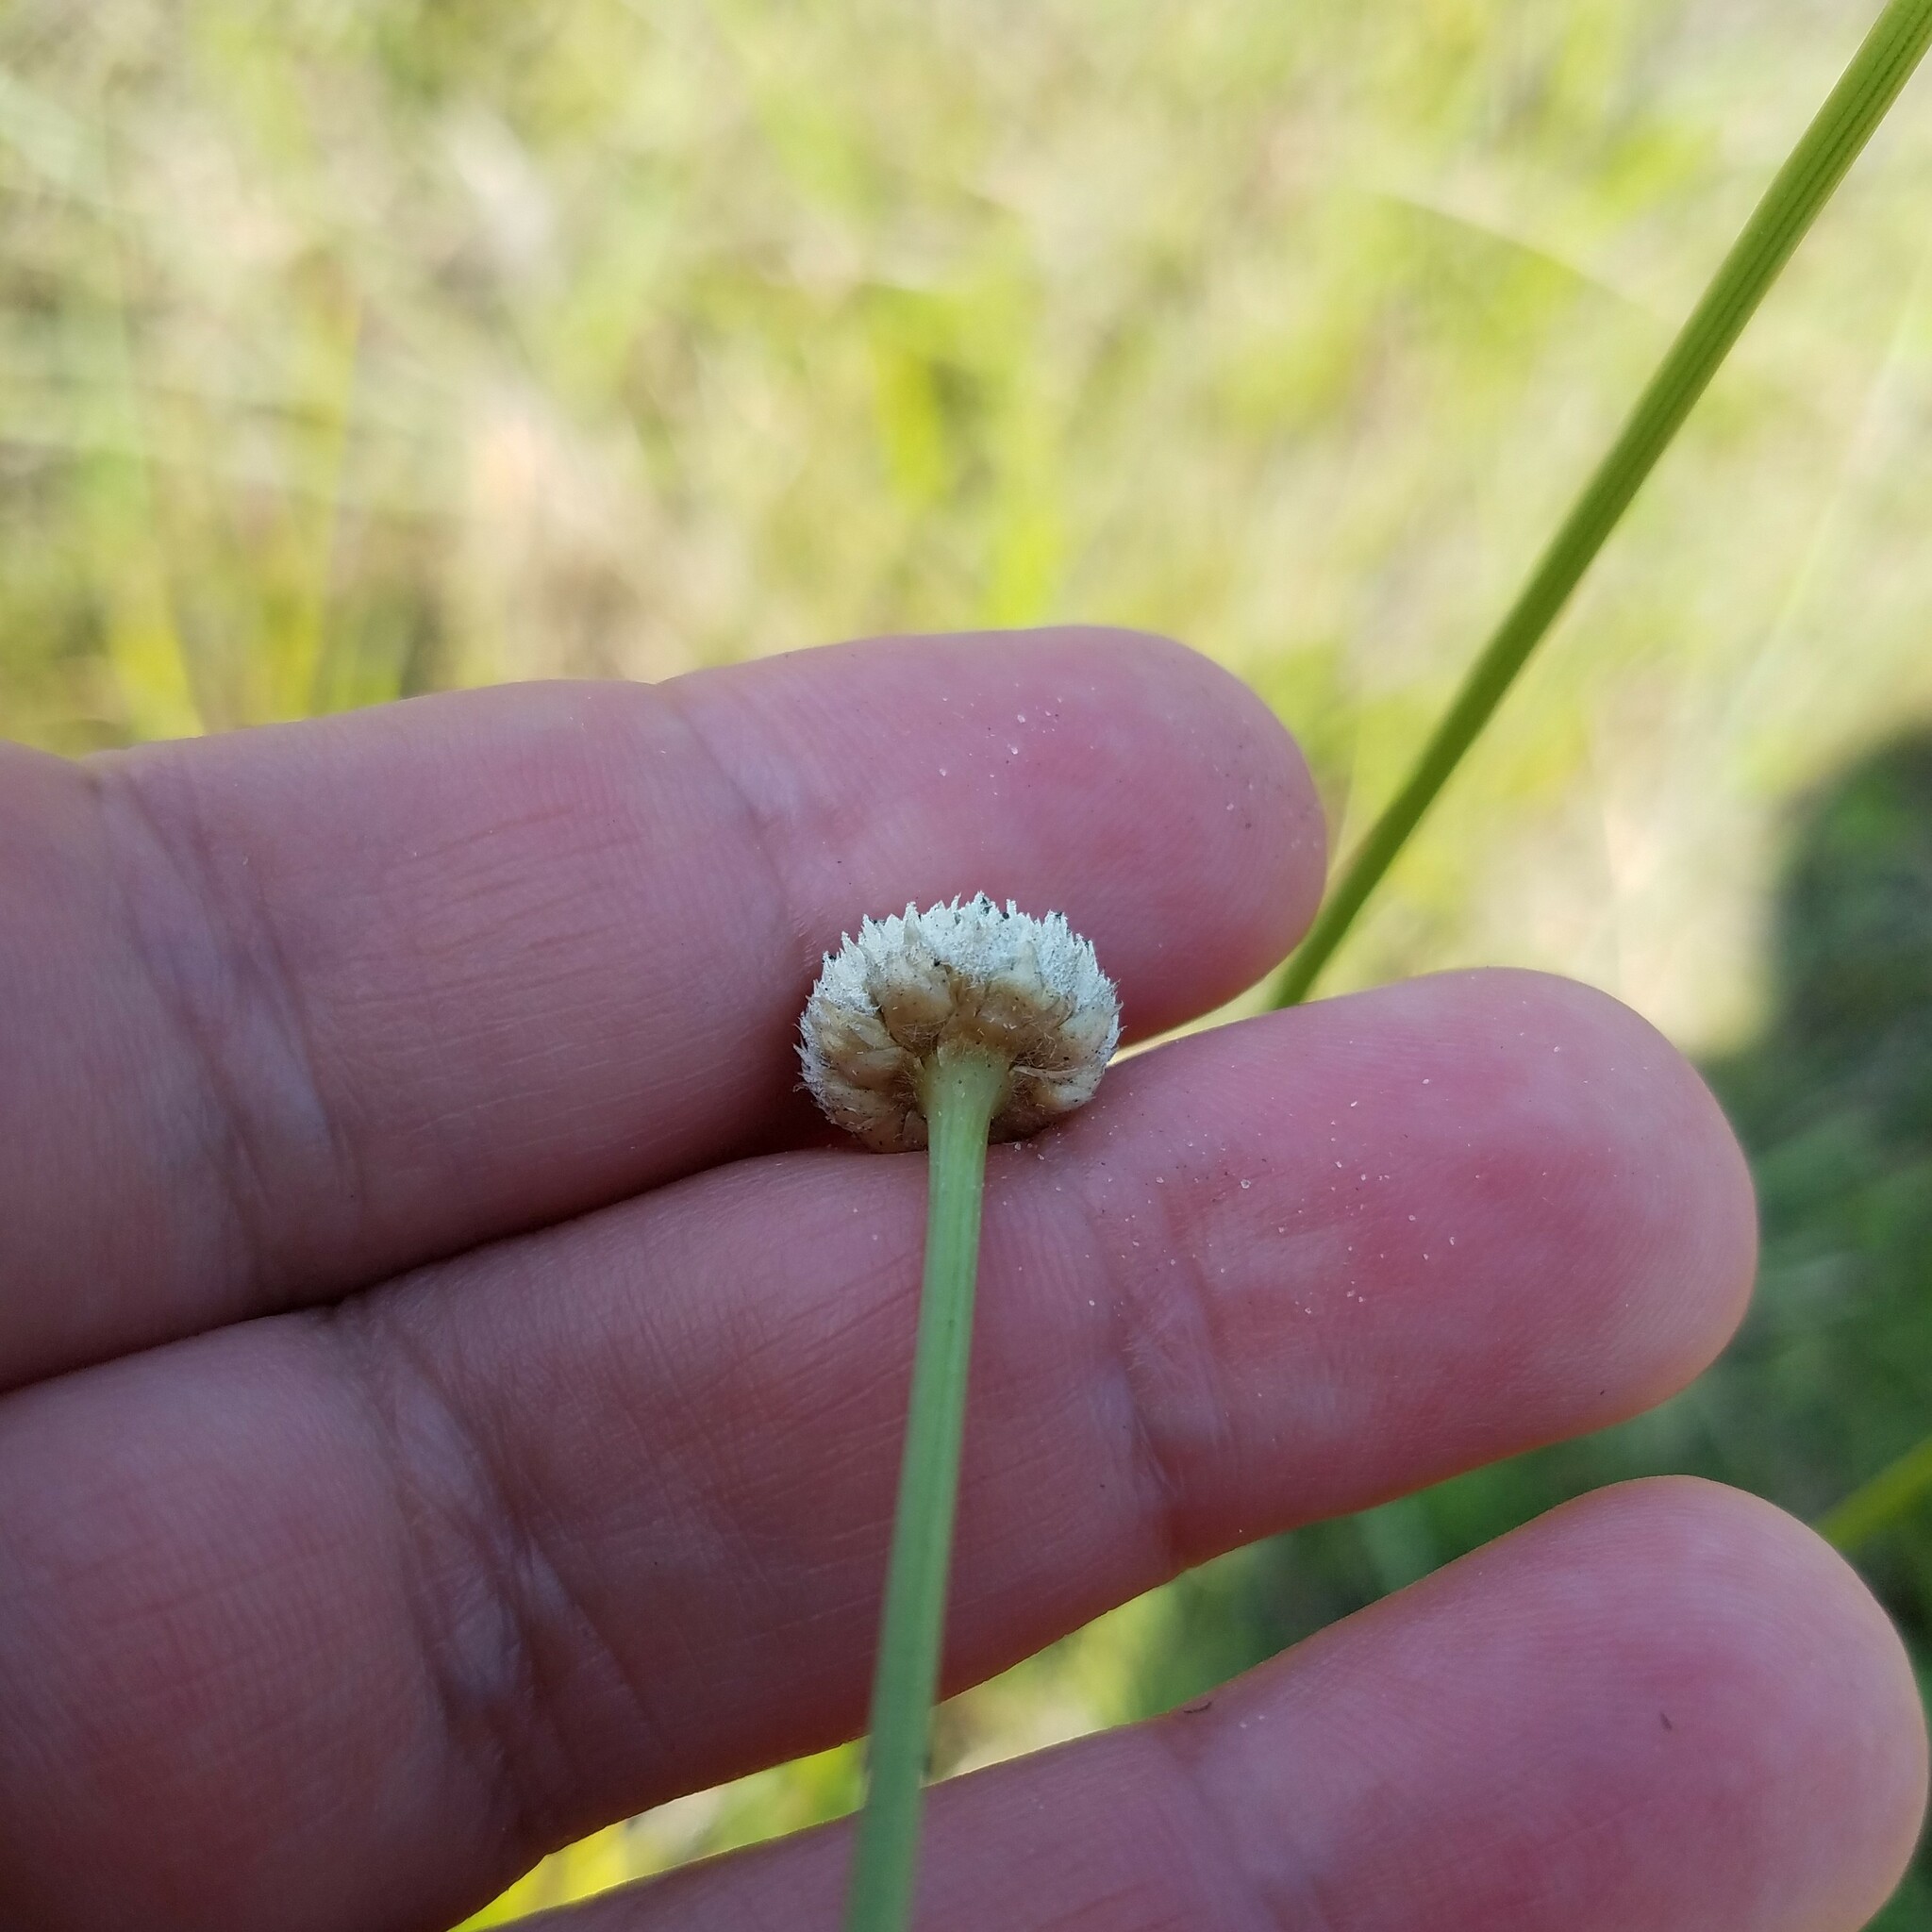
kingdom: Plantae
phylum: Tracheophyta
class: Liliopsida
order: Poales
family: Eriocaulaceae
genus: Eriocaulon
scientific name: Eriocaulon decangulare
